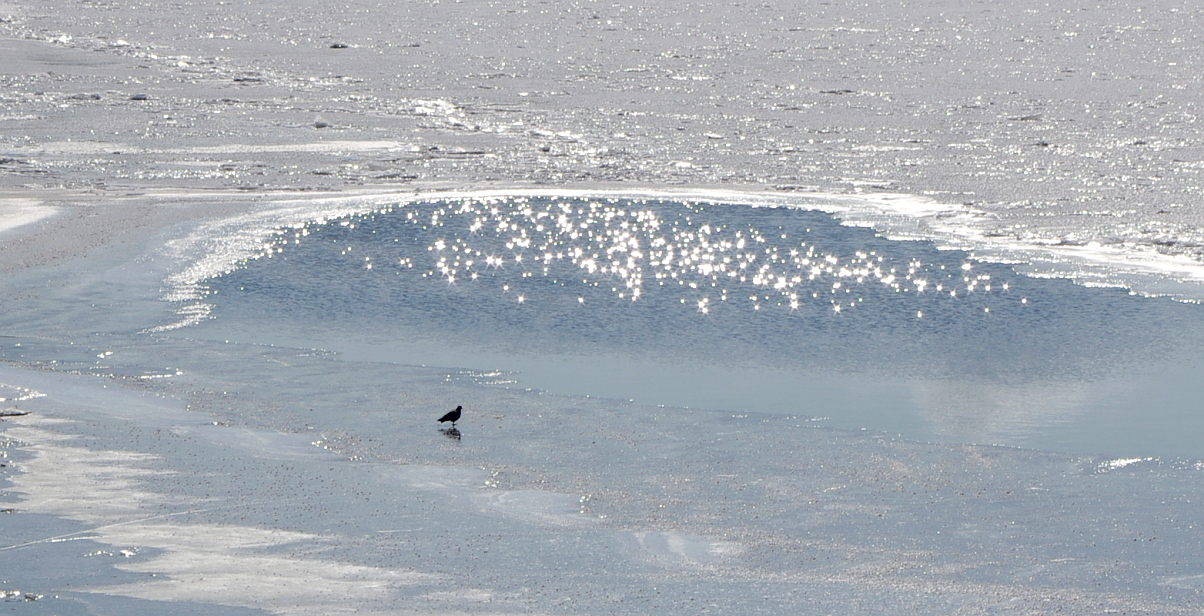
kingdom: Animalia
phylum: Chordata
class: Aves
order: Columbiformes
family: Columbidae
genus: Columba
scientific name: Columba livia
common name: Rock pigeon
